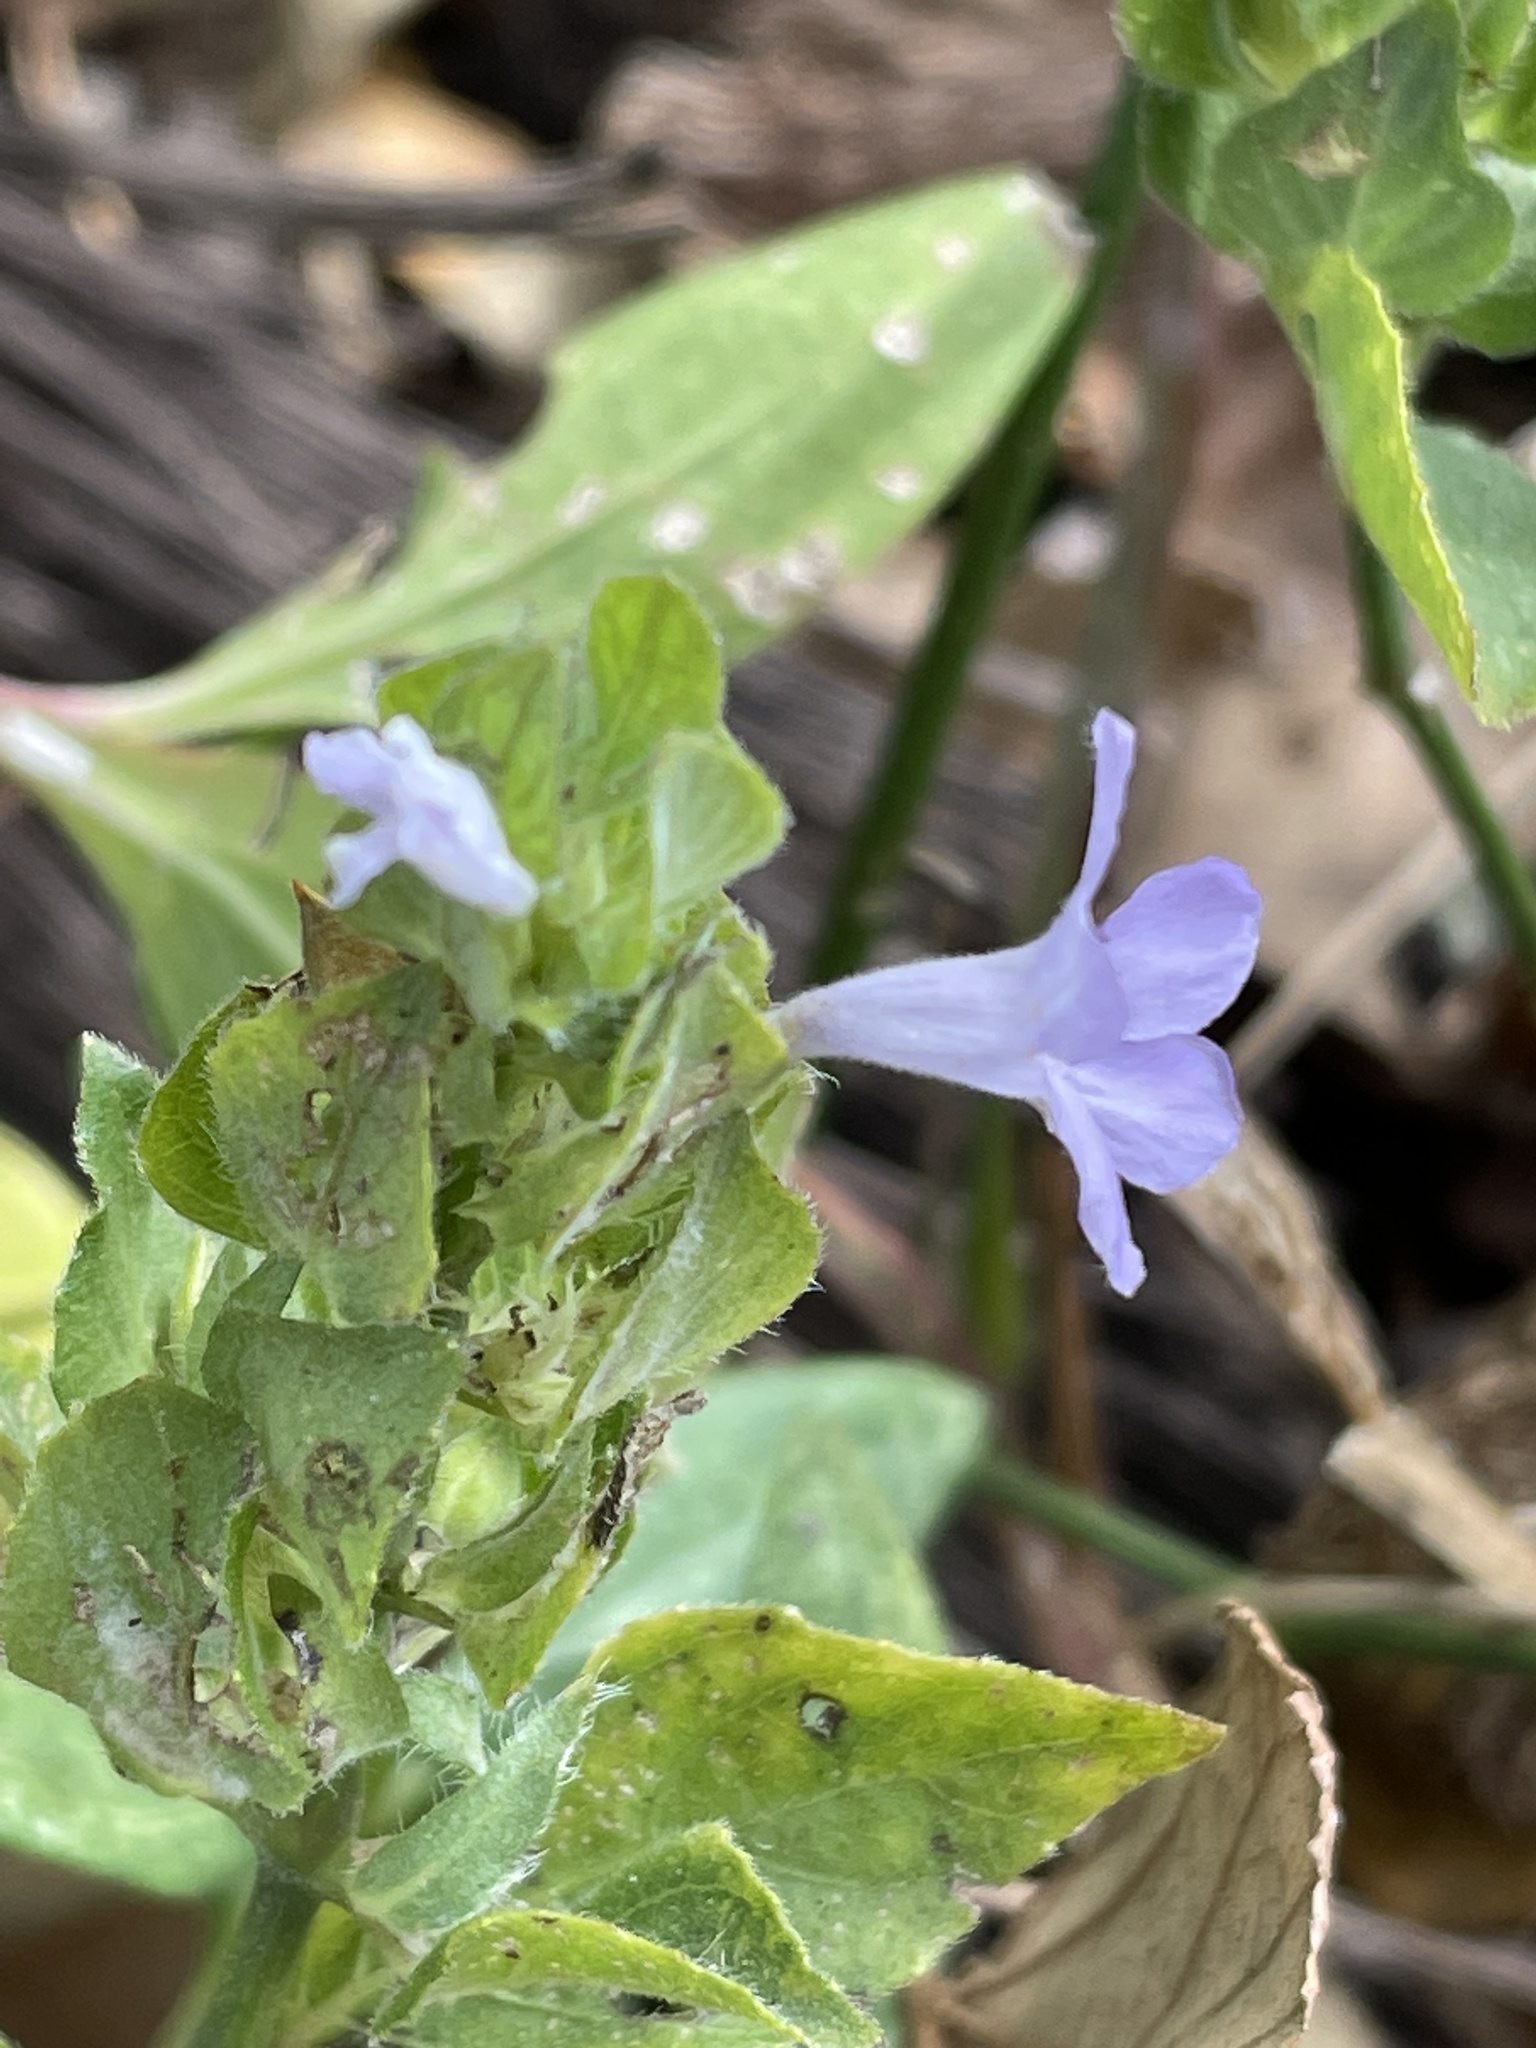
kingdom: Plantae
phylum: Tracheophyta
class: Magnoliopsida
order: Lamiales
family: Acanthaceae
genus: Ruellia
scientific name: Ruellia blechum
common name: Browne's blechum
